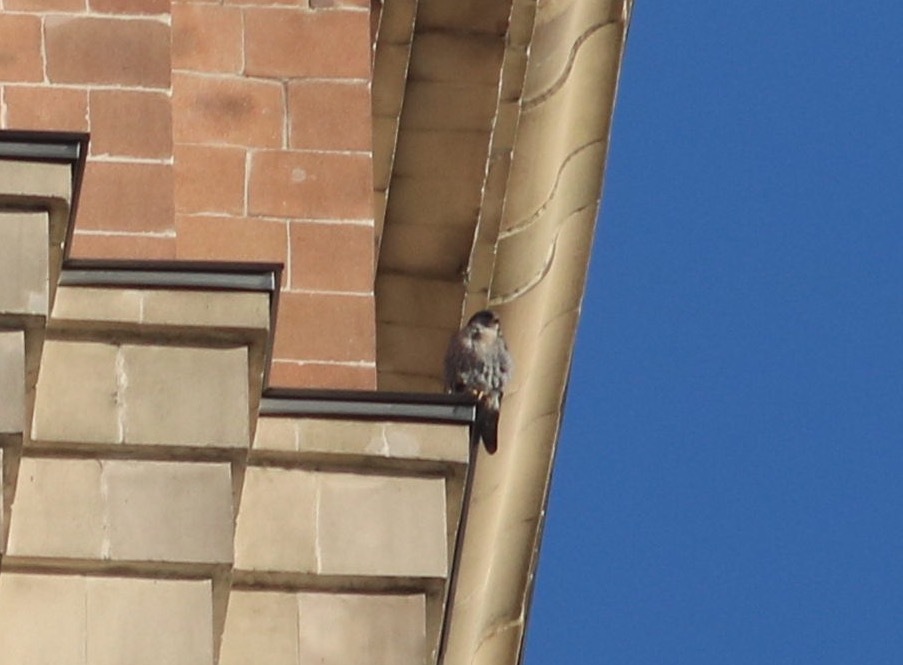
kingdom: Animalia
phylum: Chordata
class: Aves
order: Falconiformes
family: Falconidae
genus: Falco
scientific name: Falco peregrinus
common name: Peregrine falcon
